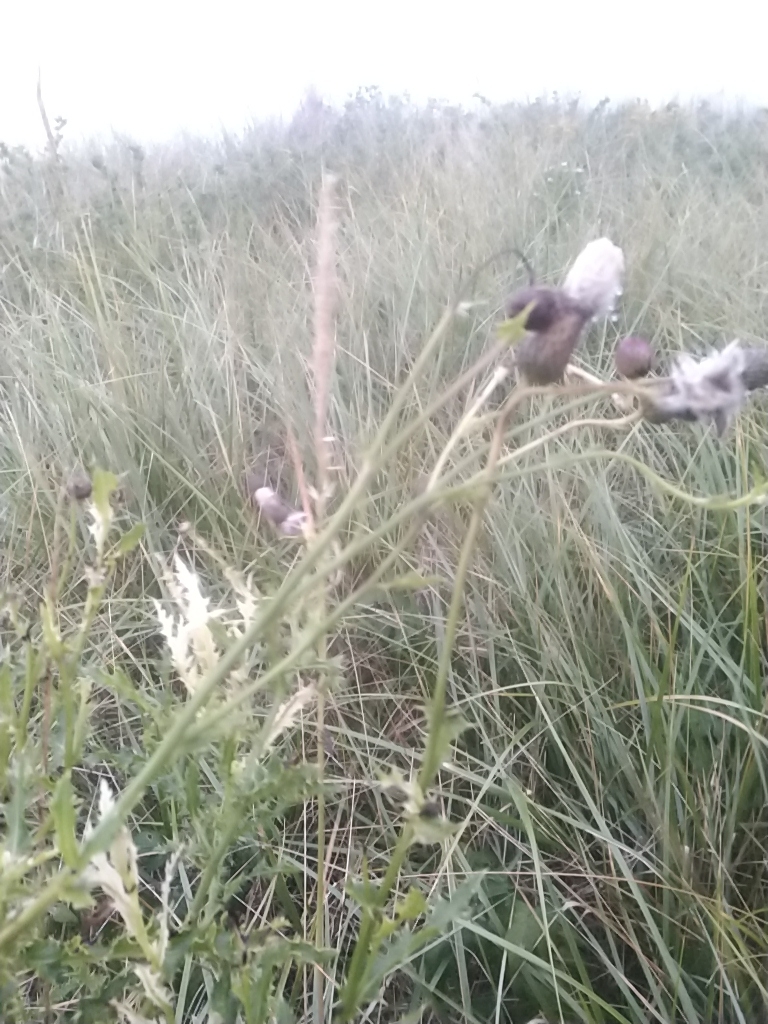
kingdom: Plantae
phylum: Tracheophyta
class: Magnoliopsida
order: Asterales
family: Asteraceae
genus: Cirsium
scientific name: Cirsium arvense
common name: Creeping thistle
